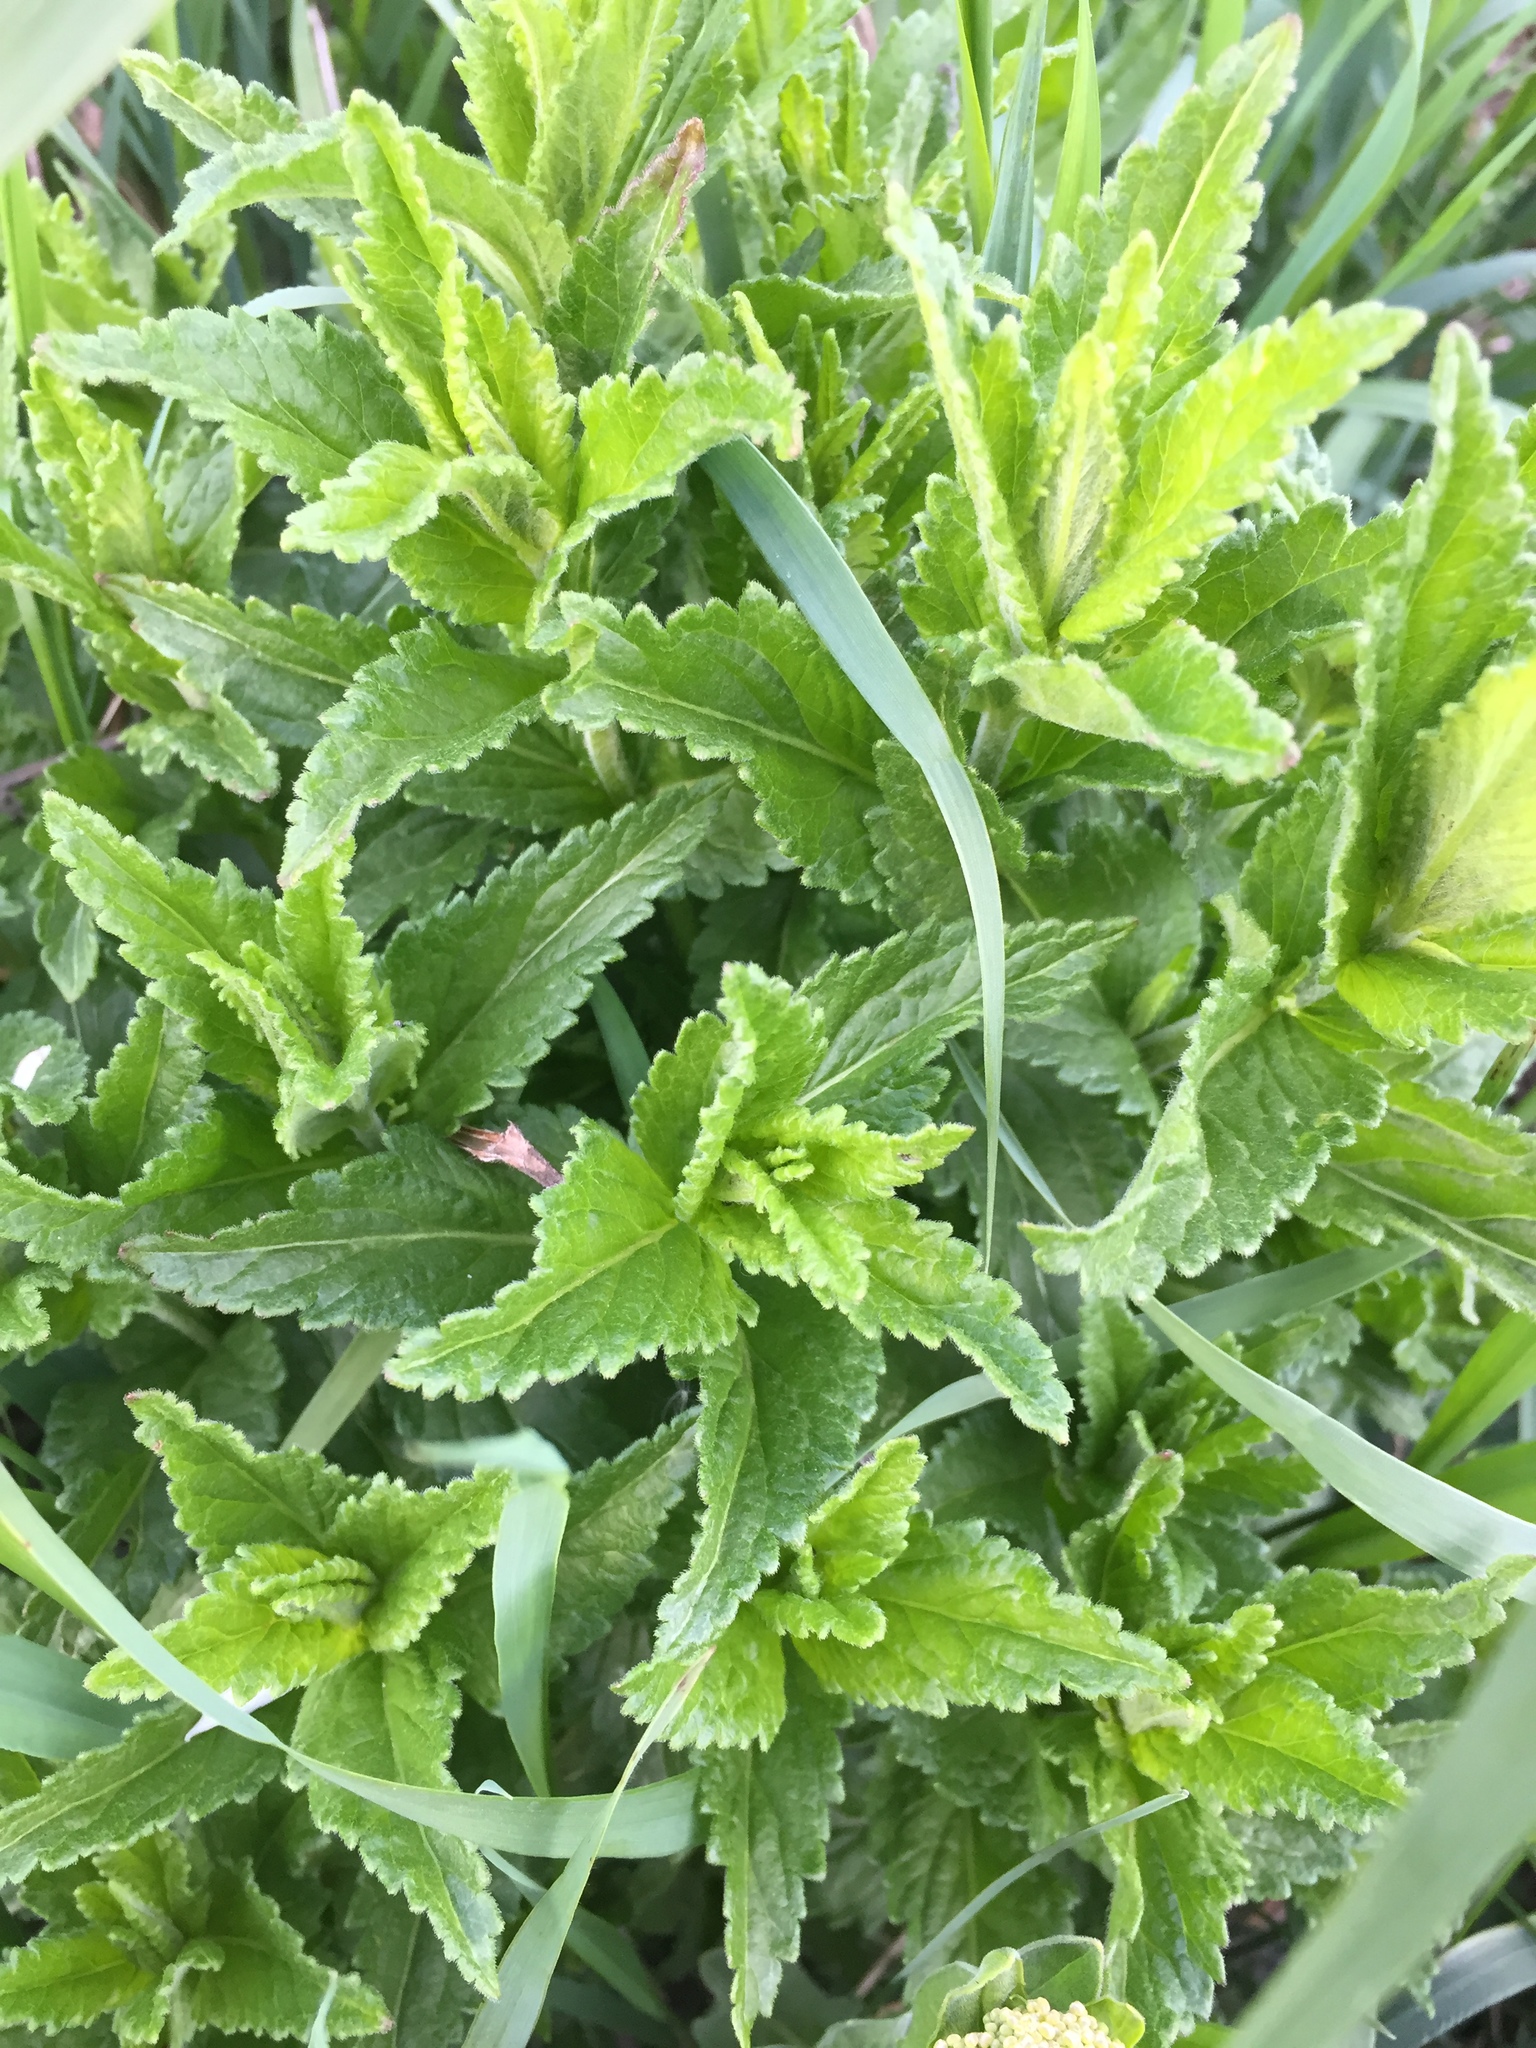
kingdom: Plantae
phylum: Tracheophyta
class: Magnoliopsida
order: Lamiales
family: Plantaginaceae
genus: Veronica
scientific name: Veronica teucrium
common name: Large speedwell
